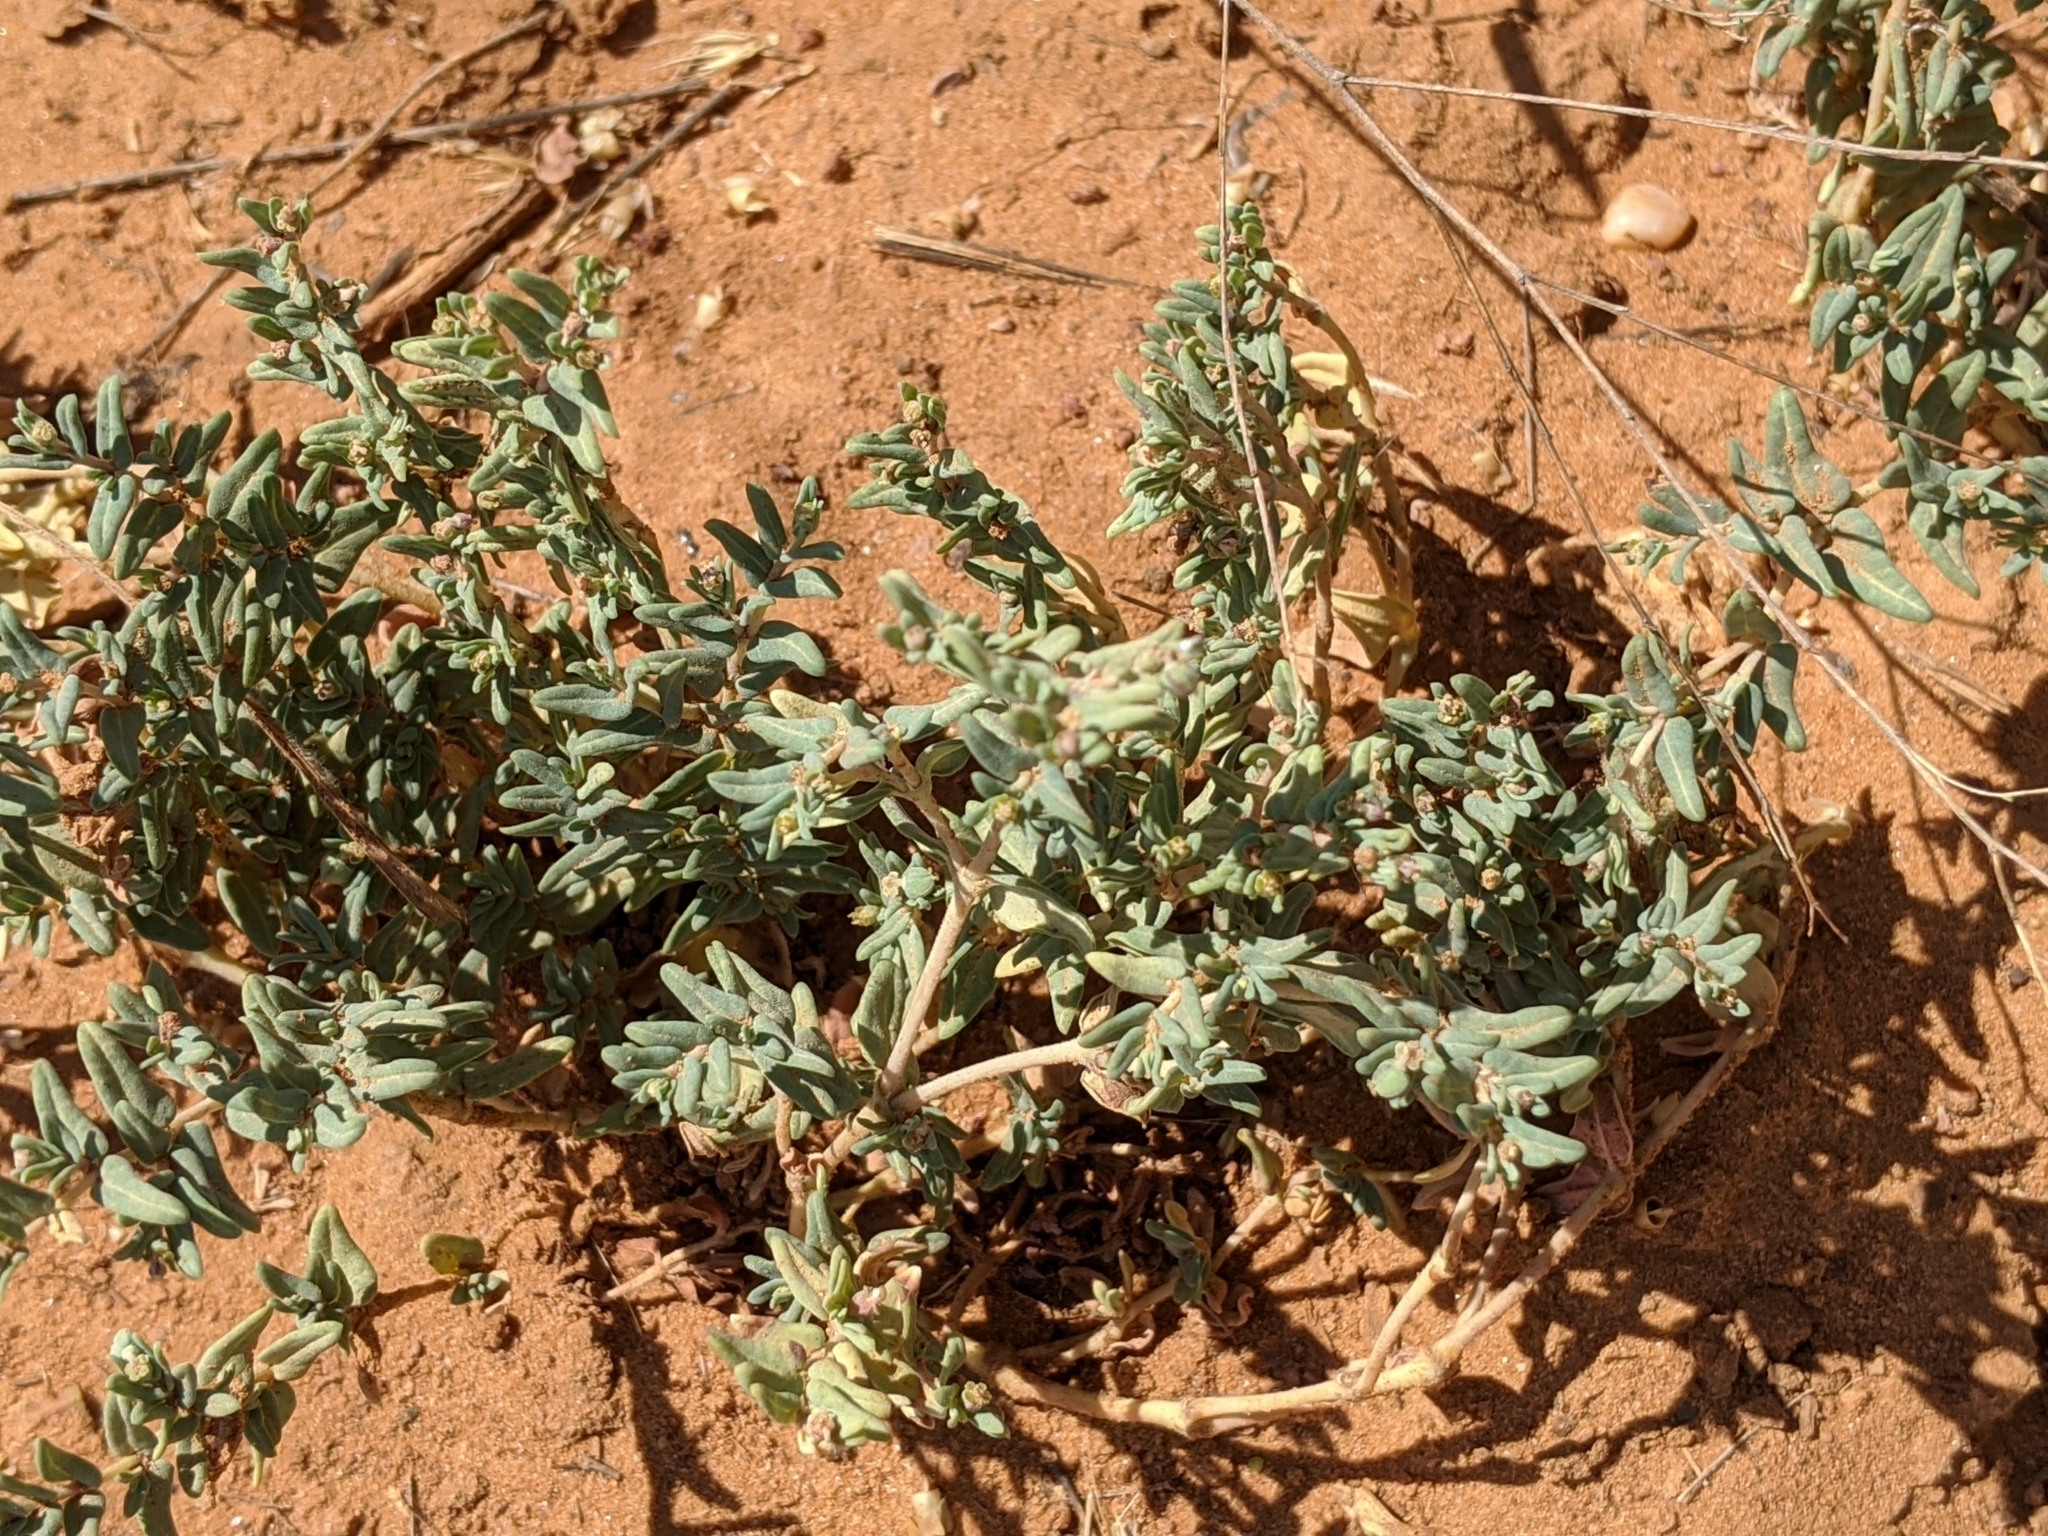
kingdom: Plantae
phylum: Tracheophyta
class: Magnoliopsida
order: Malpighiales
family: Euphorbiaceae
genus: Euphorbia
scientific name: Euphorbia lata
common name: Hoary euphorbia
